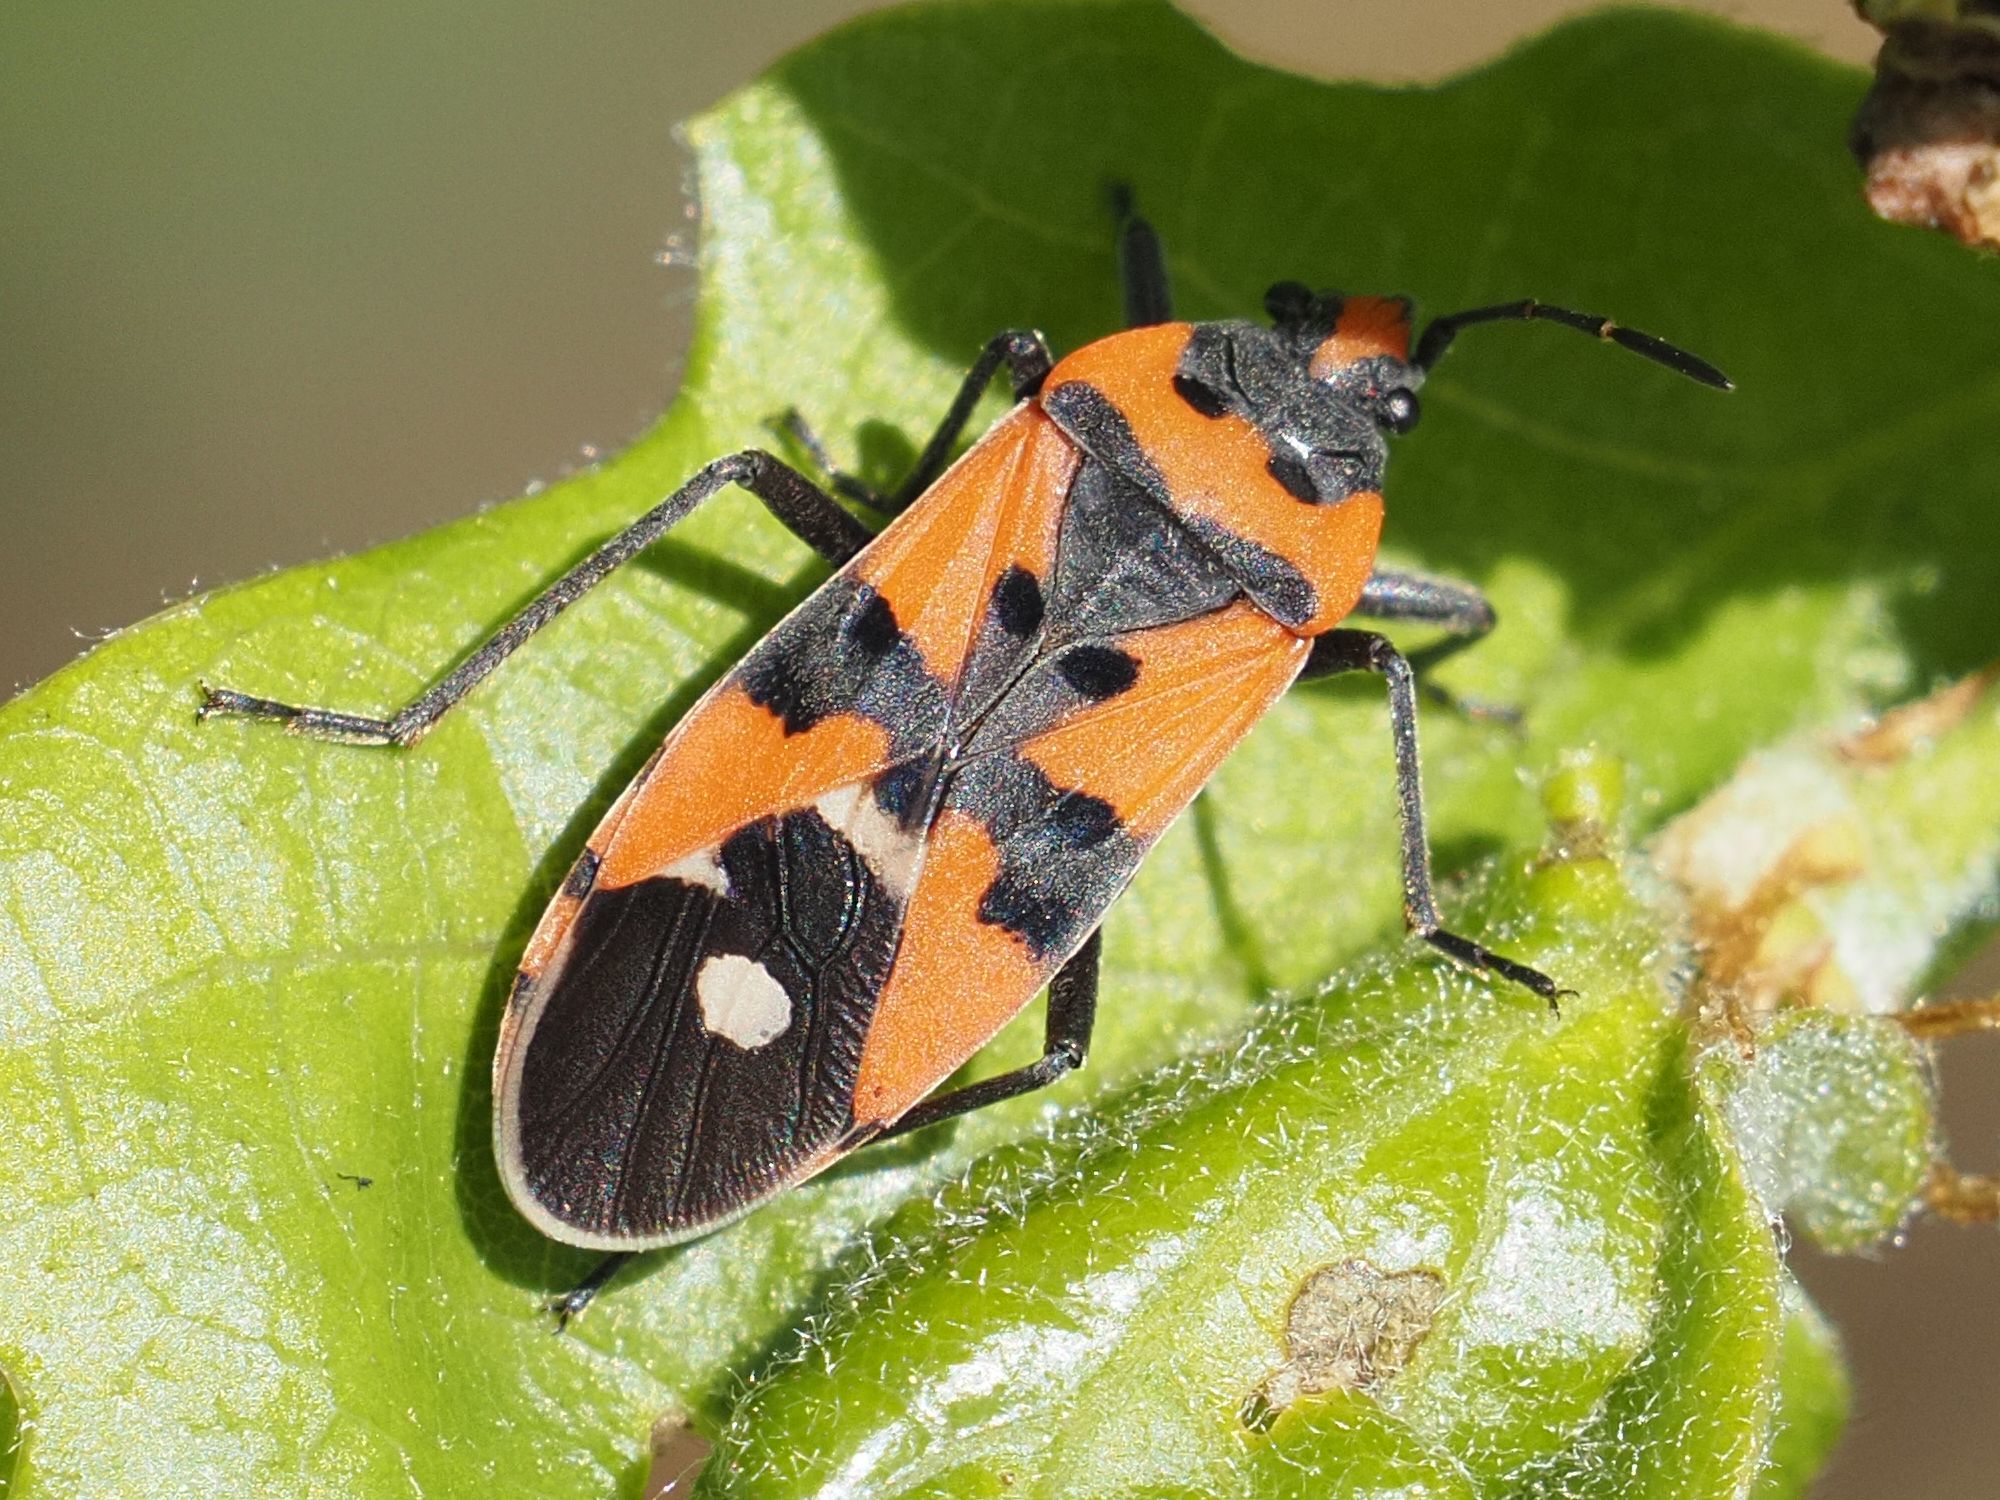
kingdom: Animalia
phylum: Arthropoda
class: Insecta
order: Hemiptera
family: Lygaeidae
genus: Lygaeus
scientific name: Lygaeus equestris
